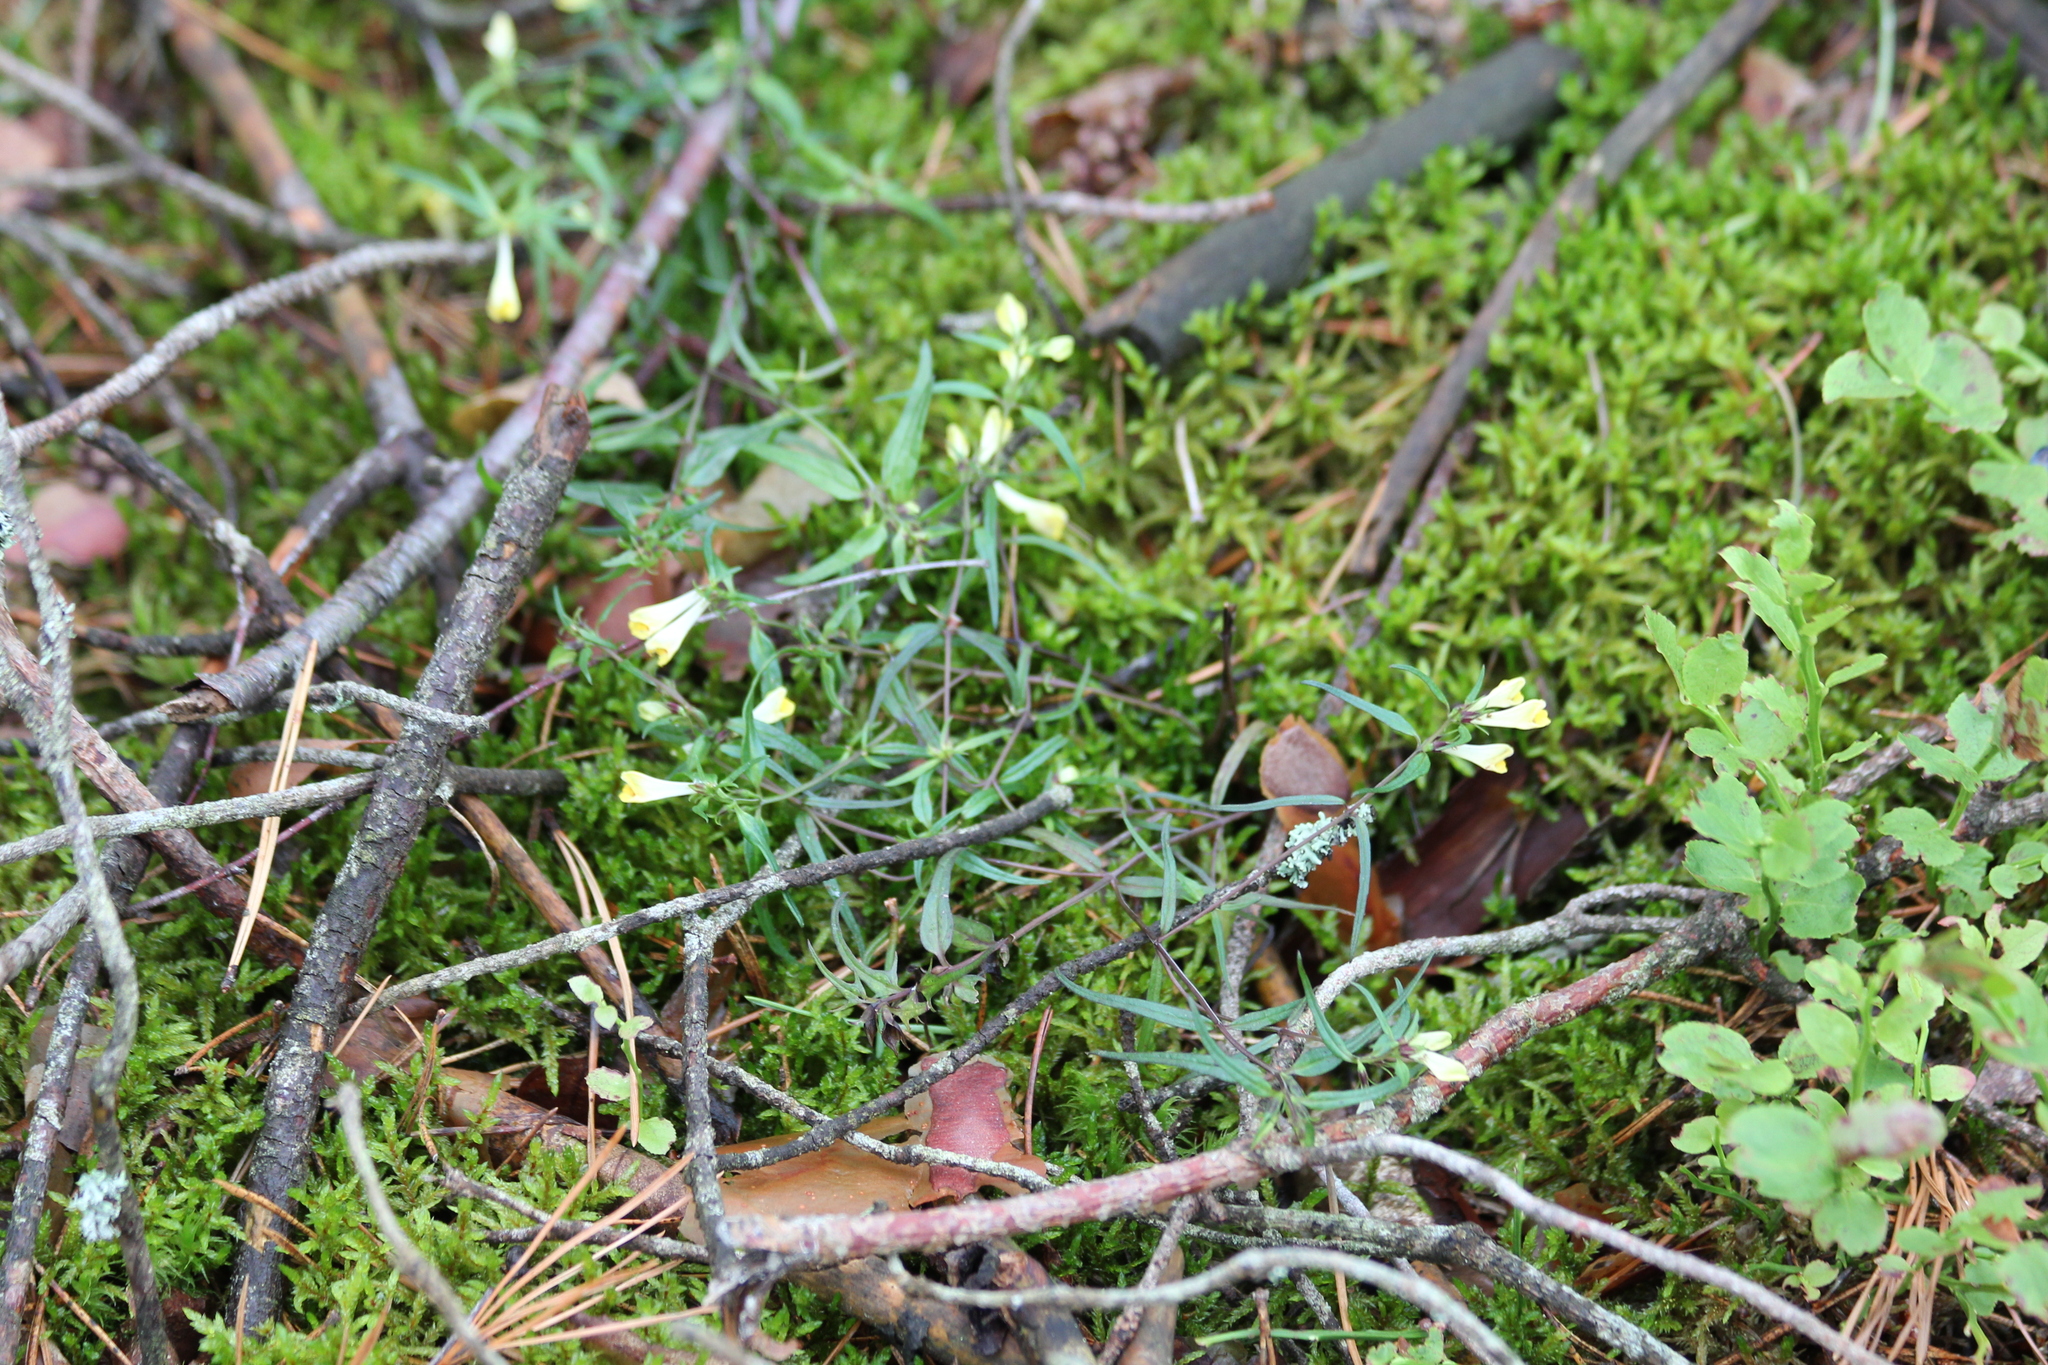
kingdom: Plantae
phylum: Tracheophyta
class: Magnoliopsida
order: Lamiales
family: Orobanchaceae
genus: Melampyrum
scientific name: Melampyrum pratense
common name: Common cow-wheat
